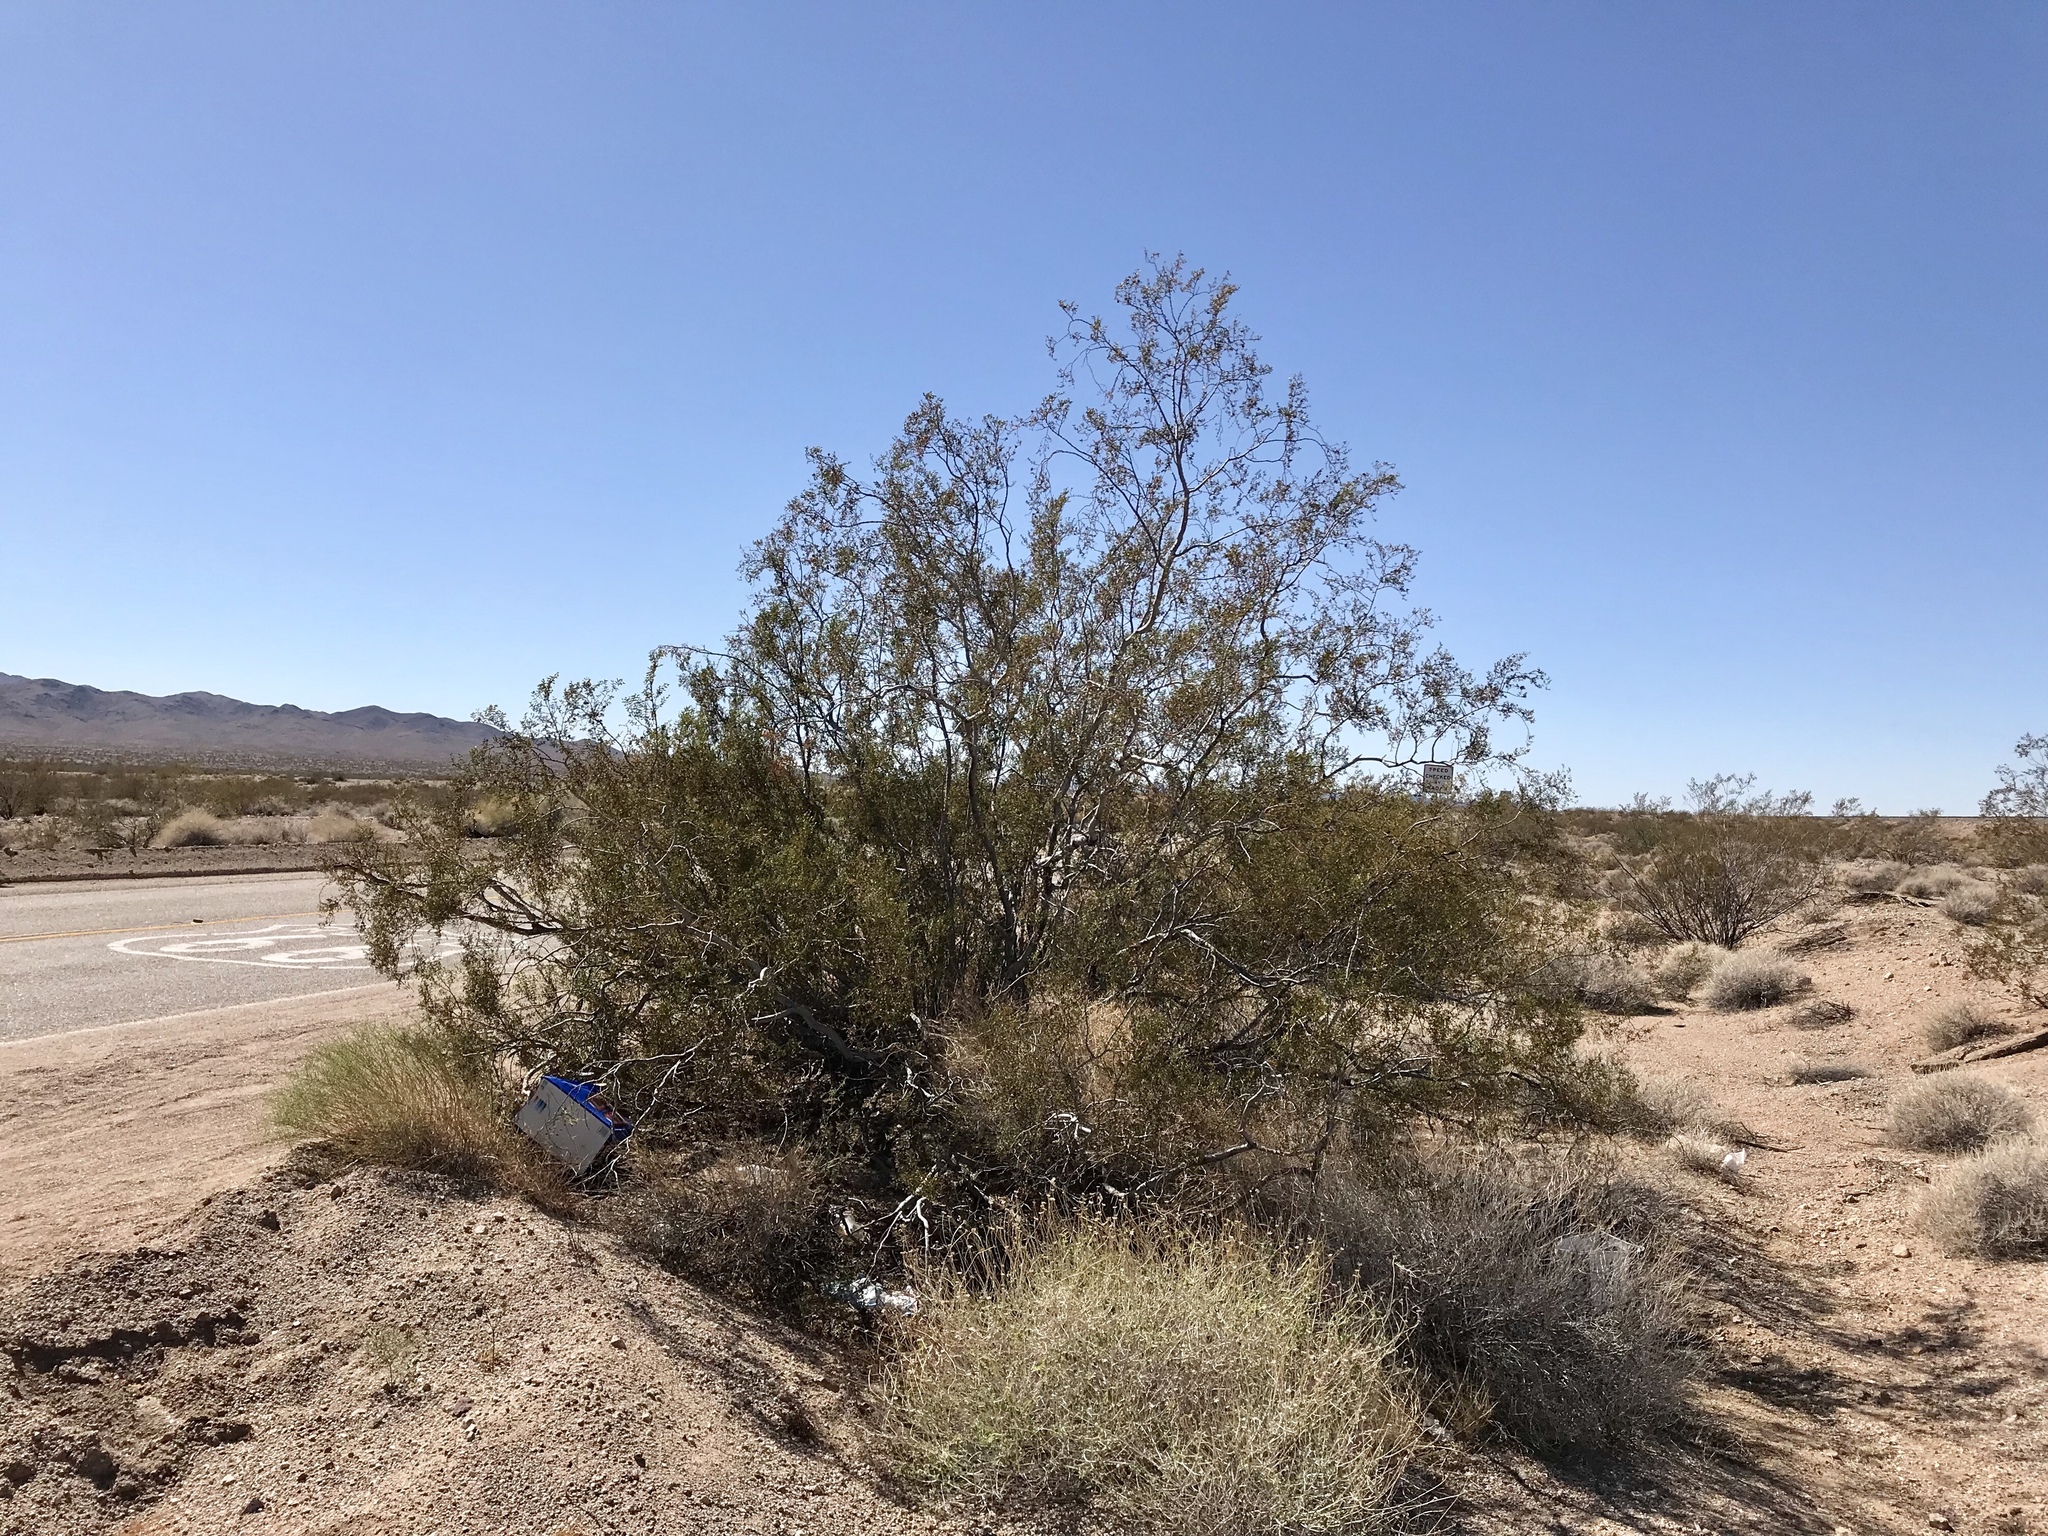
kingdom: Plantae
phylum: Tracheophyta
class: Magnoliopsida
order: Zygophyllales
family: Zygophyllaceae
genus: Larrea
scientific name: Larrea tridentata
